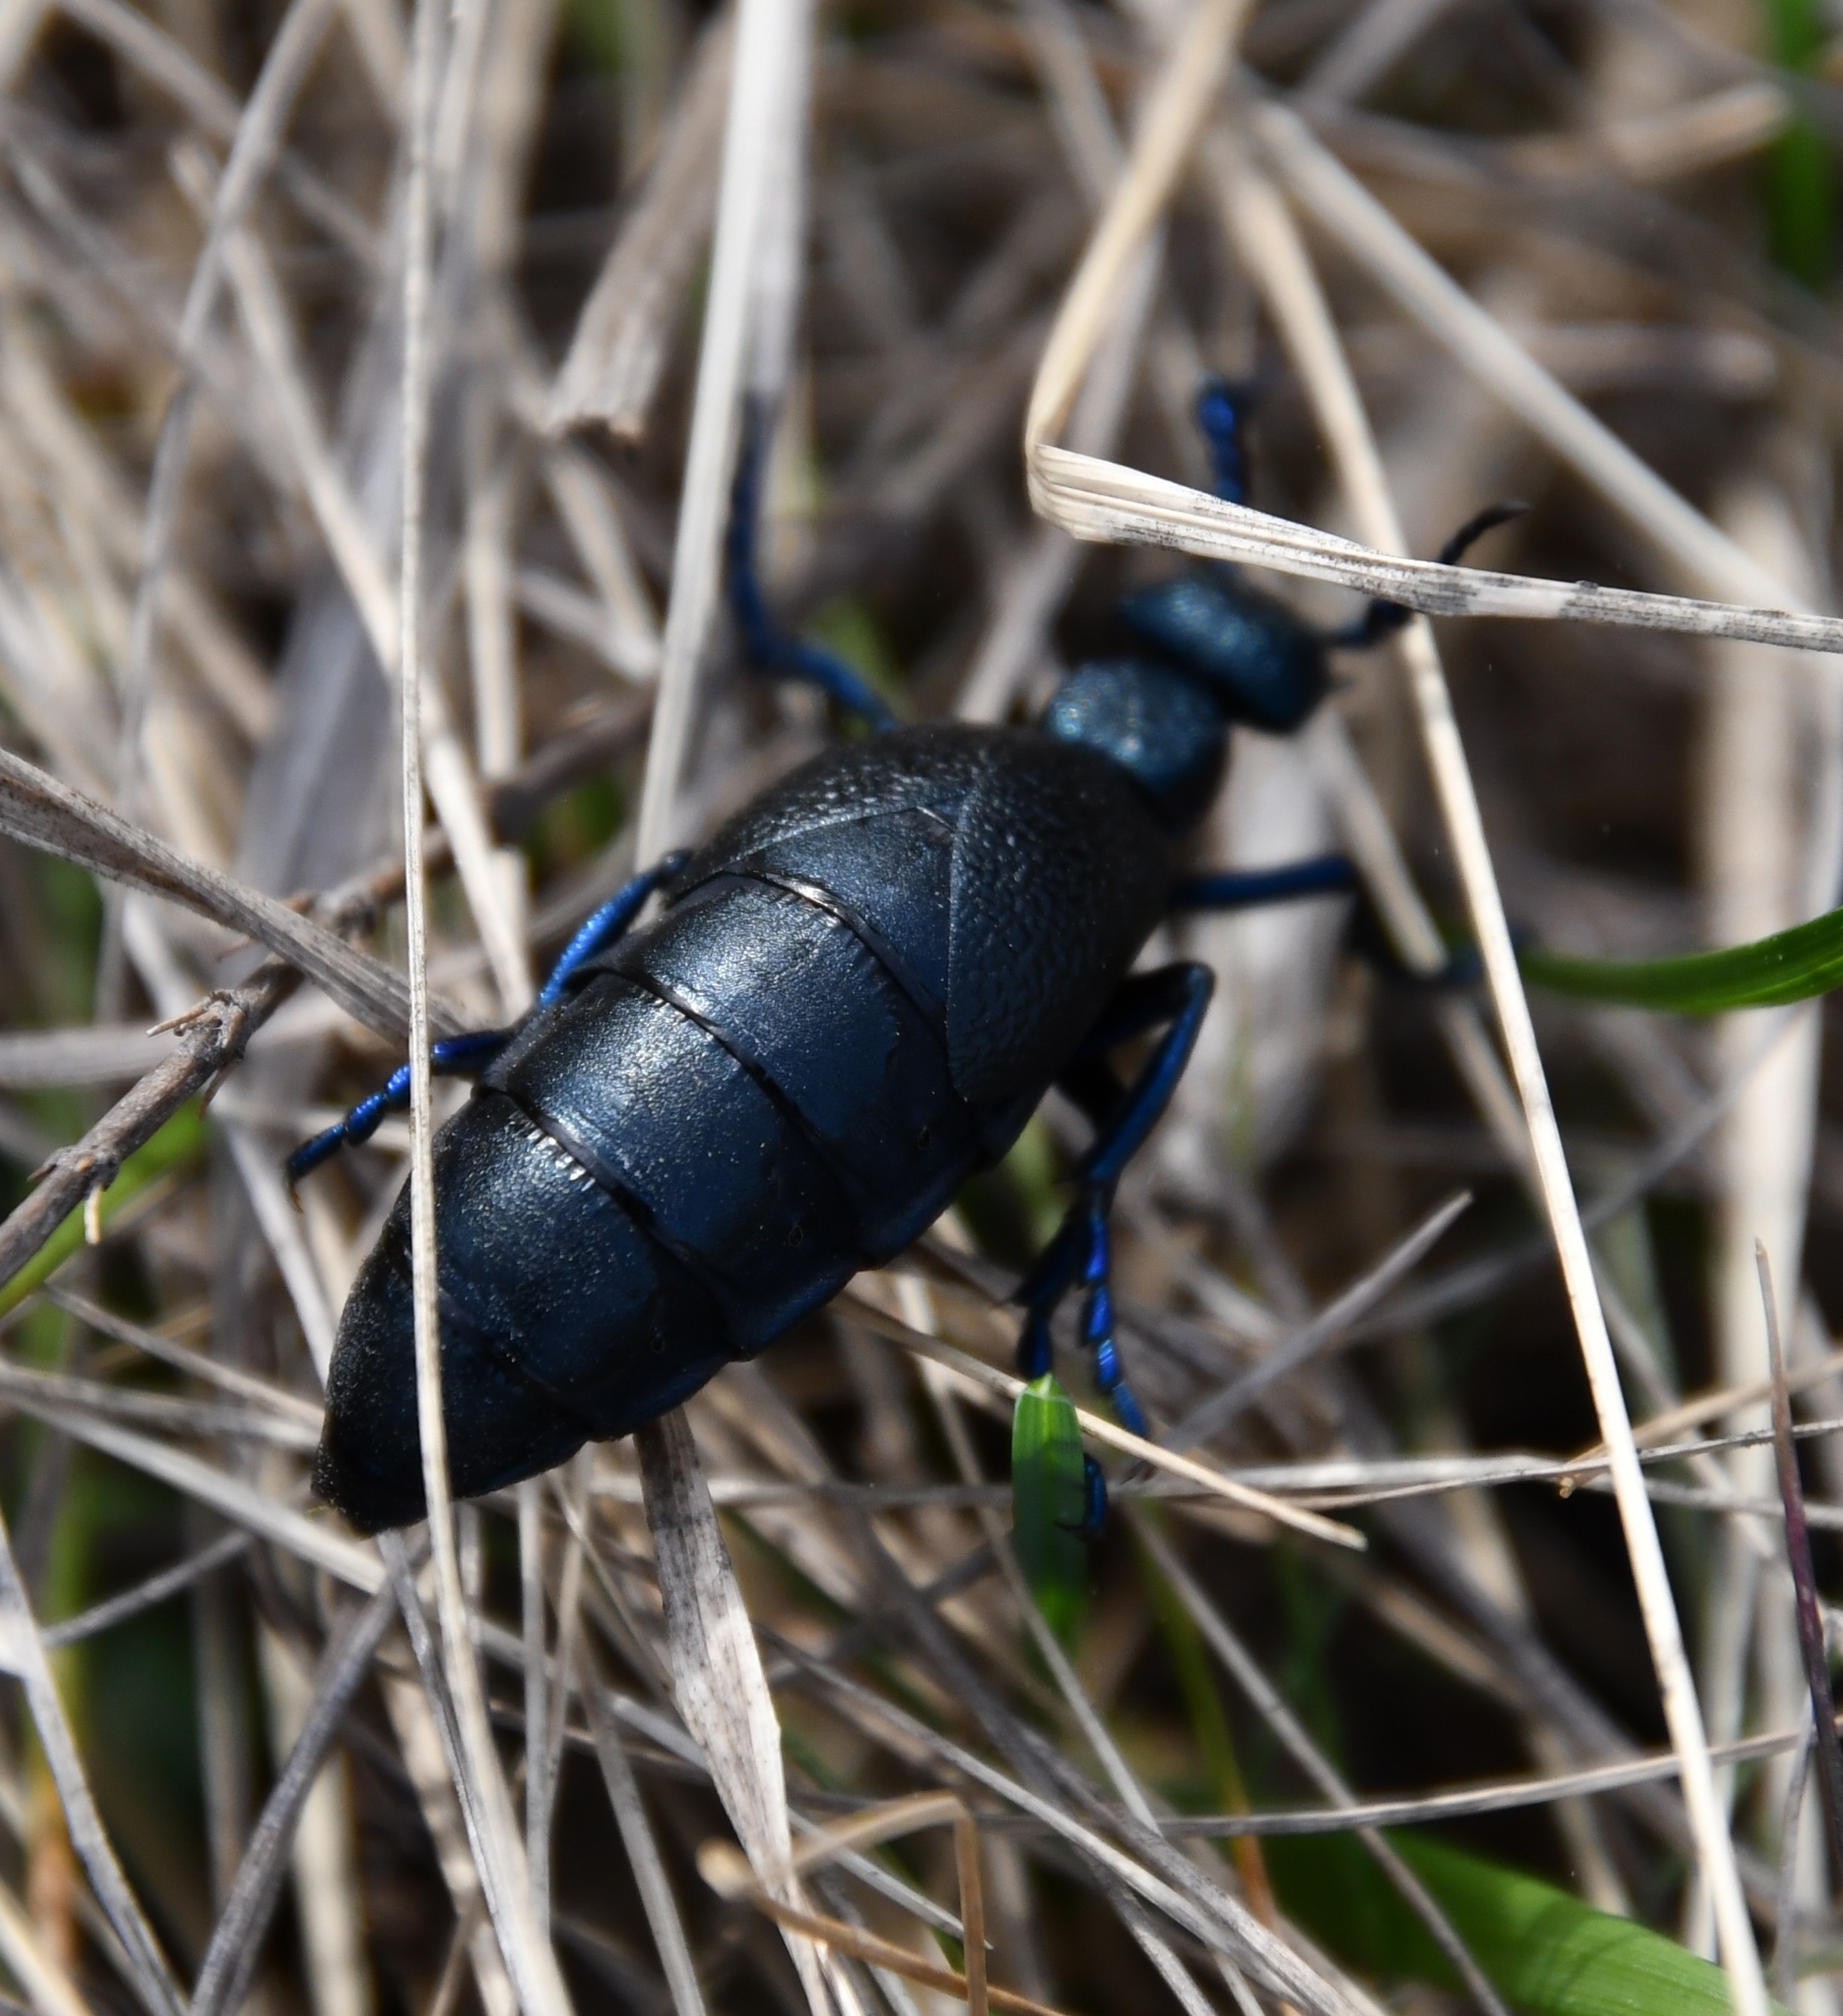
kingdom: Animalia
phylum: Arthropoda
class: Insecta
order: Coleoptera
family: Meloidae
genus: Meloe
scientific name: Meloe proscarabaeus
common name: Black oil-beetle
